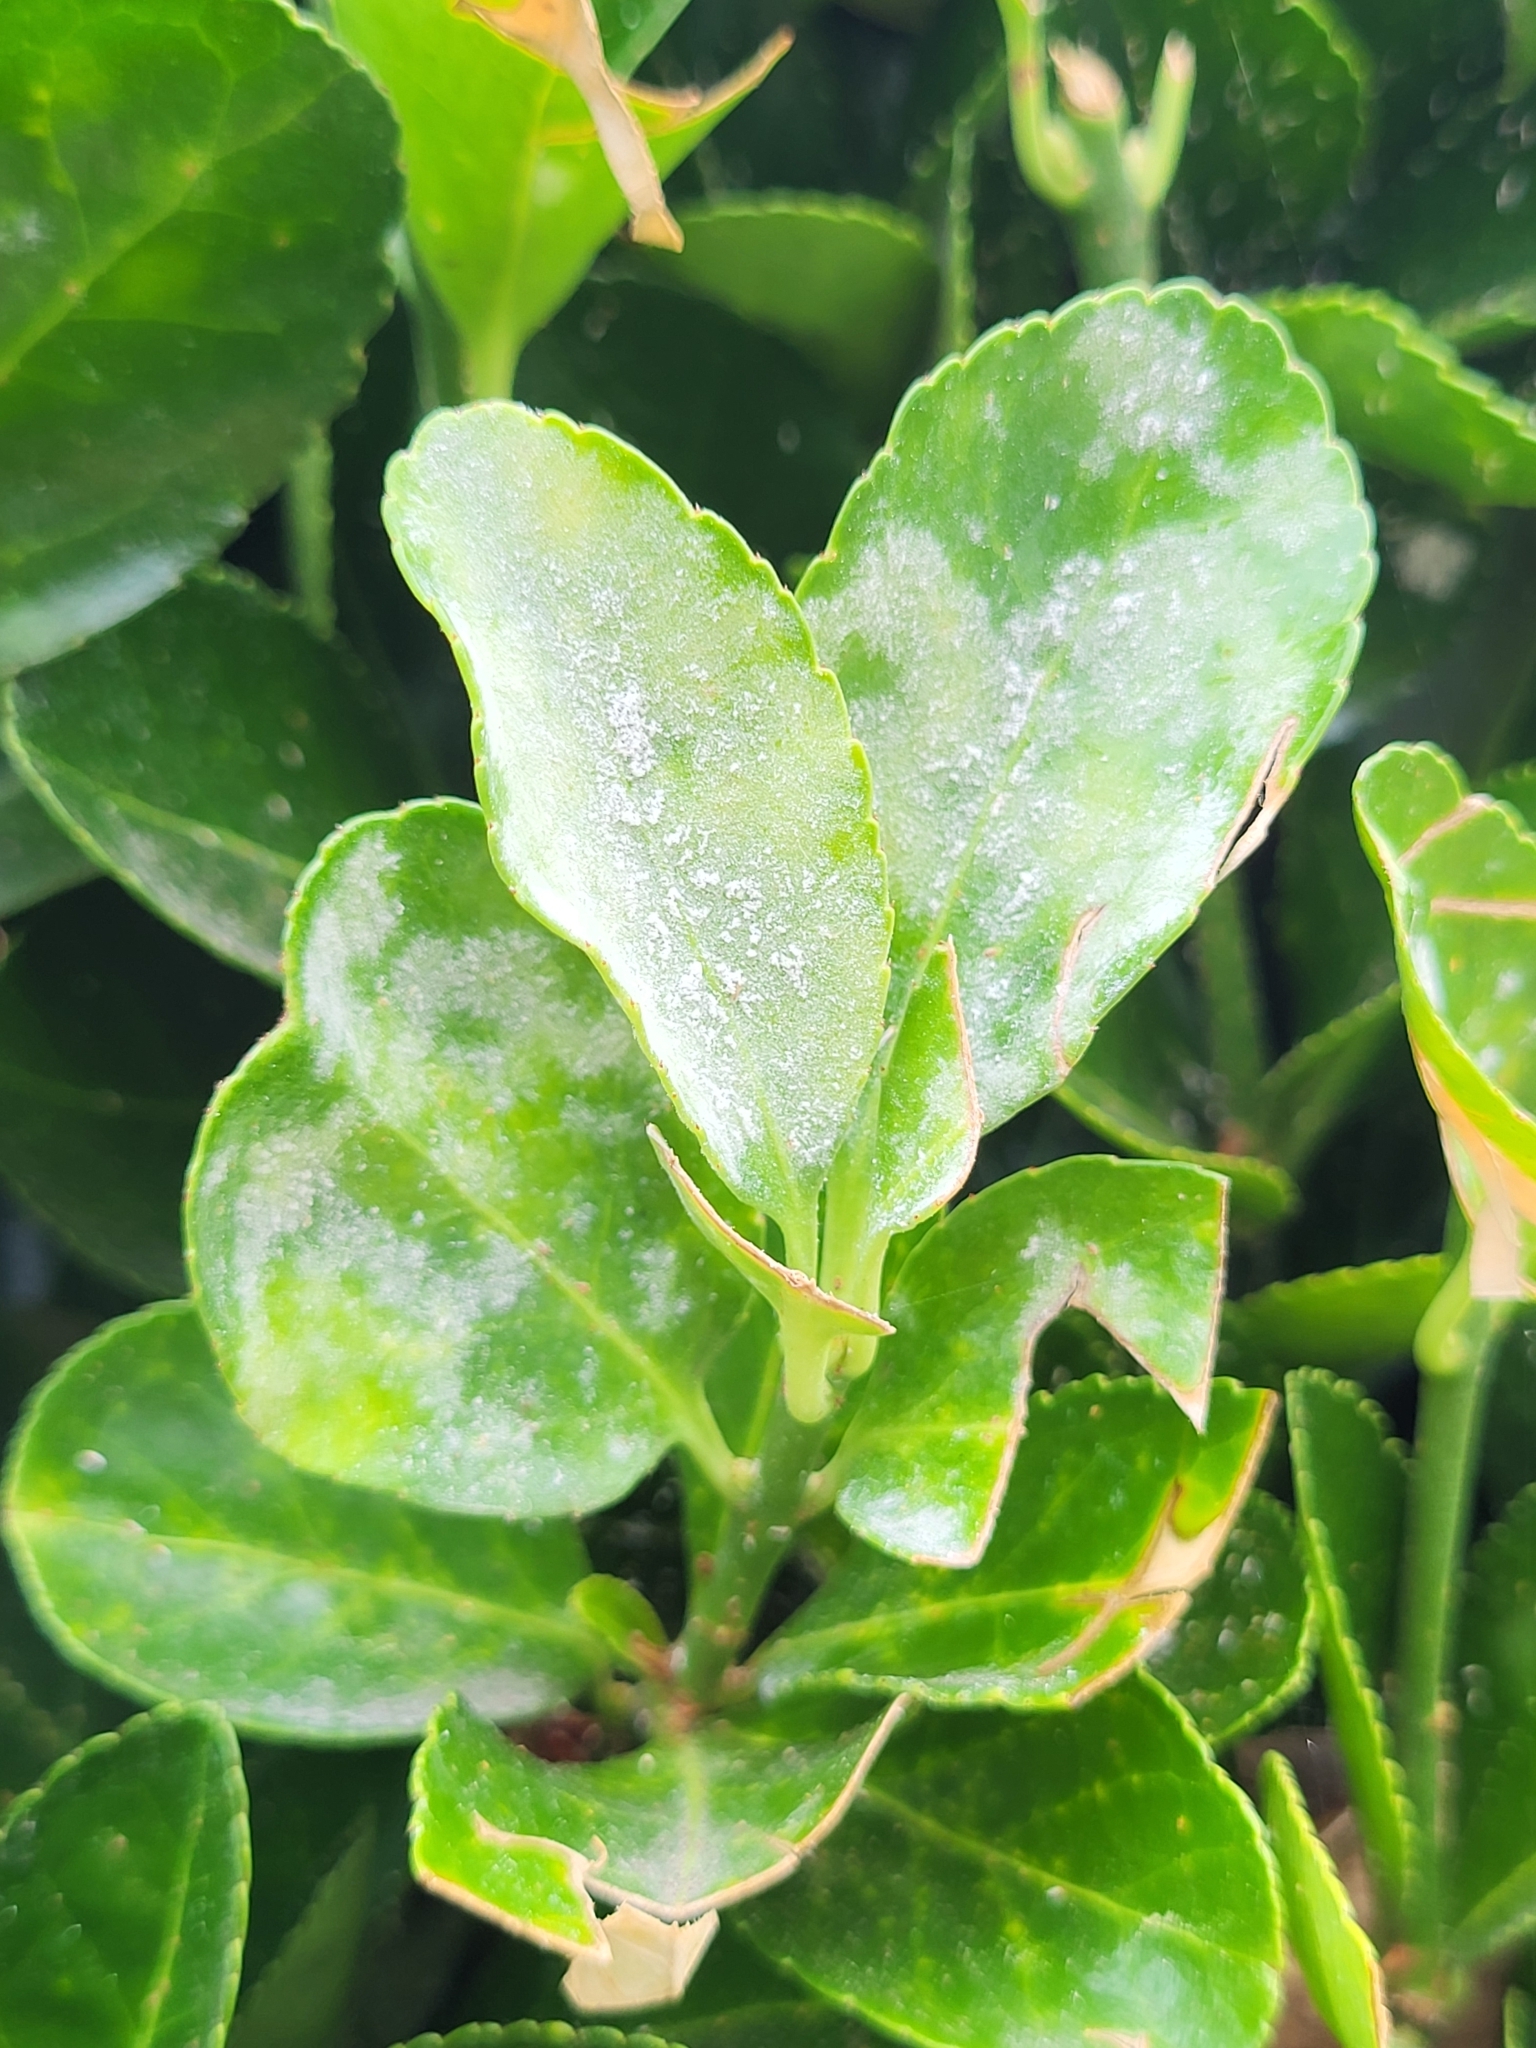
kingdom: Fungi
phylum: Ascomycota
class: Leotiomycetes
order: Helotiales
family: Erysiphaceae
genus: Erysiphe
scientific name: Erysiphe euonymicola
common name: Spindletree mildew
